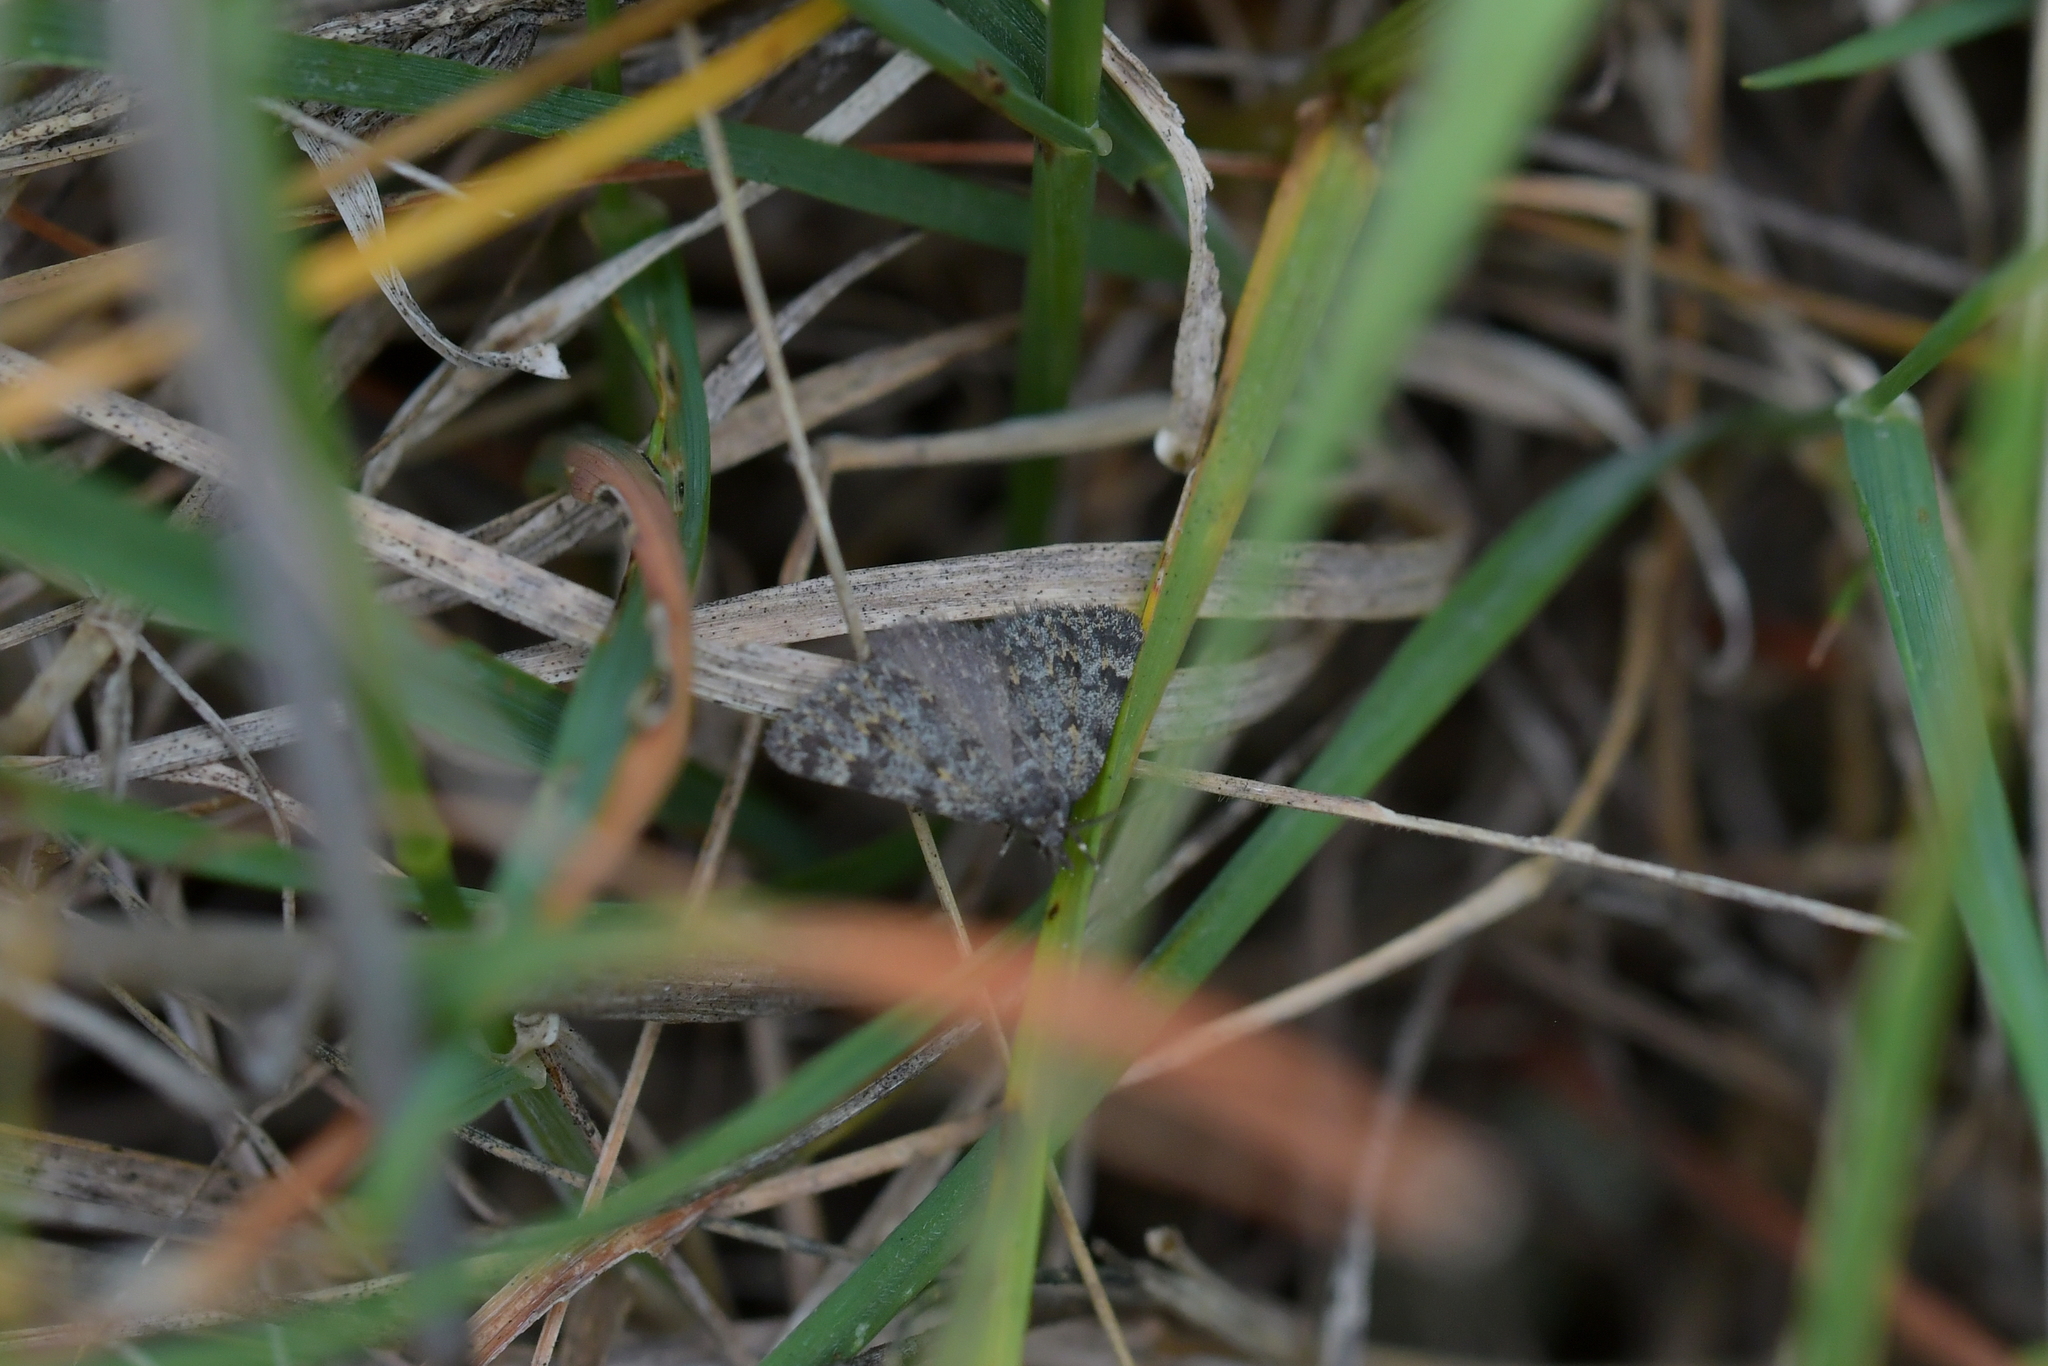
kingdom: Animalia
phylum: Arthropoda
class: Insecta
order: Lepidoptera
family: Geometridae
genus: Dichromodes
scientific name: Dichromodes cynica
